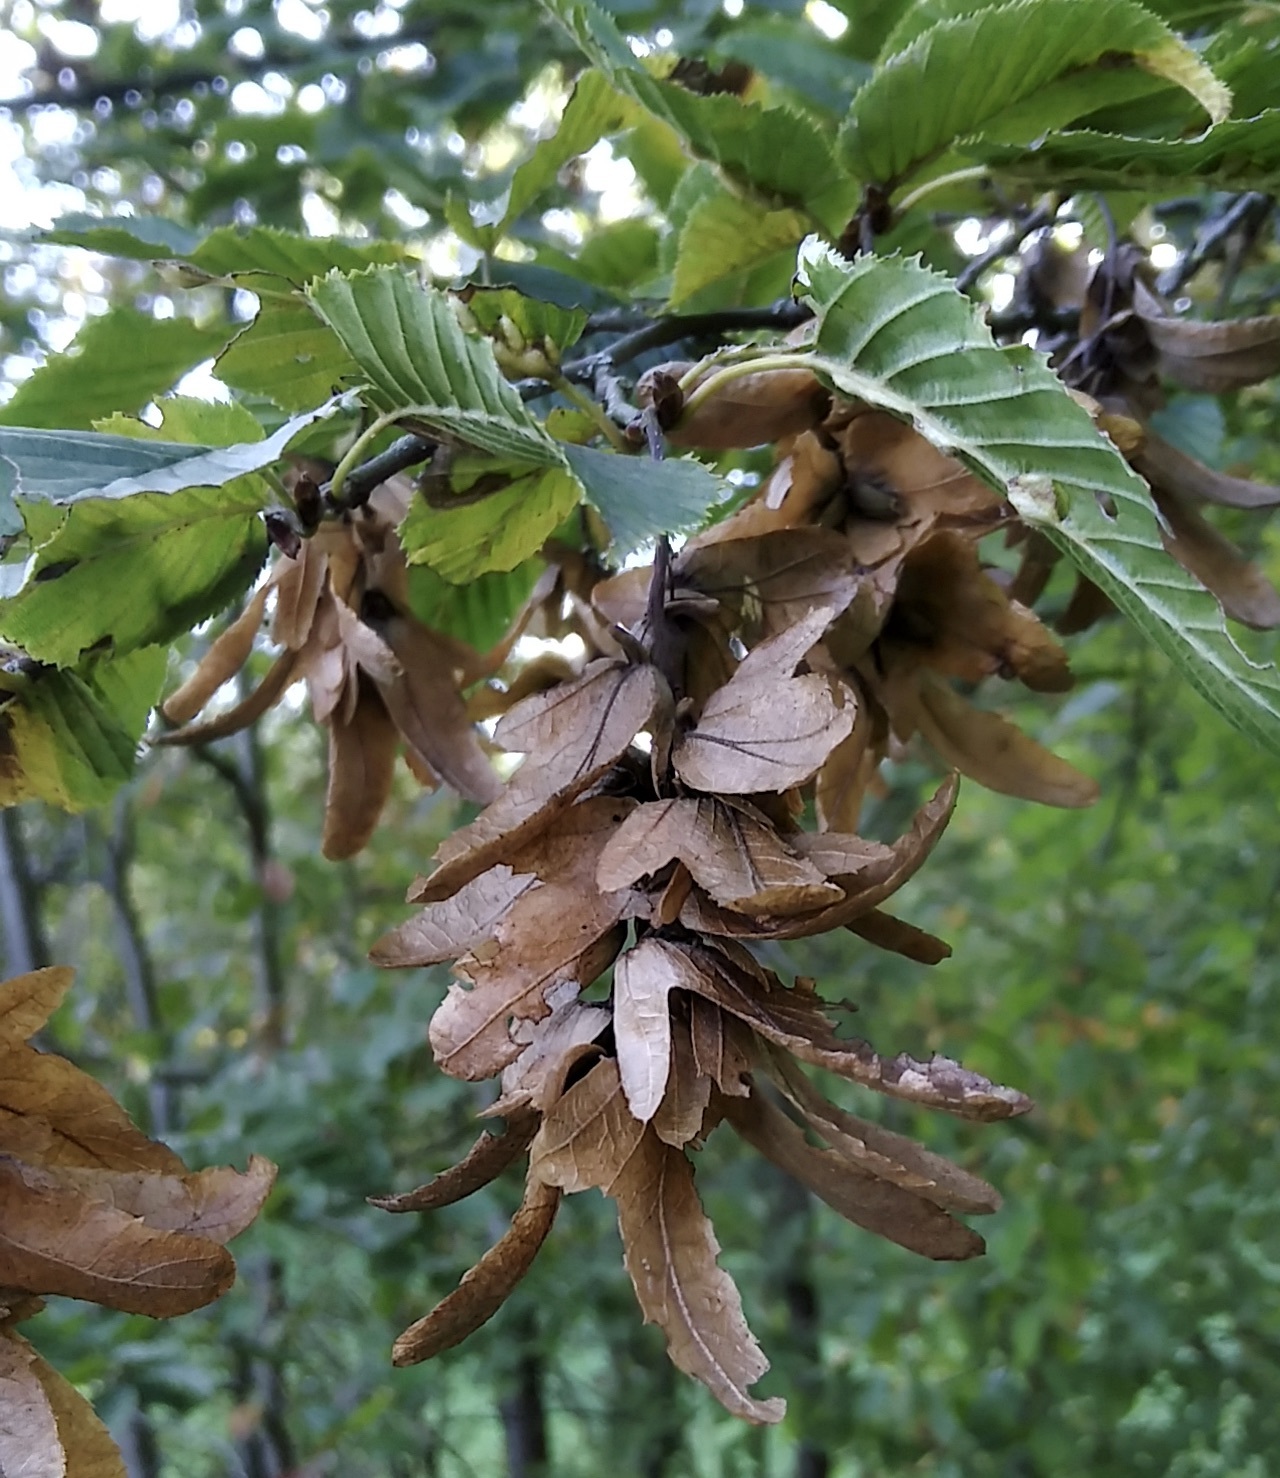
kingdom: Plantae
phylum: Tracheophyta
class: Magnoliopsida
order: Fagales
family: Betulaceae
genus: Carpinus
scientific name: Carpinus betulus
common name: Hornbeam
